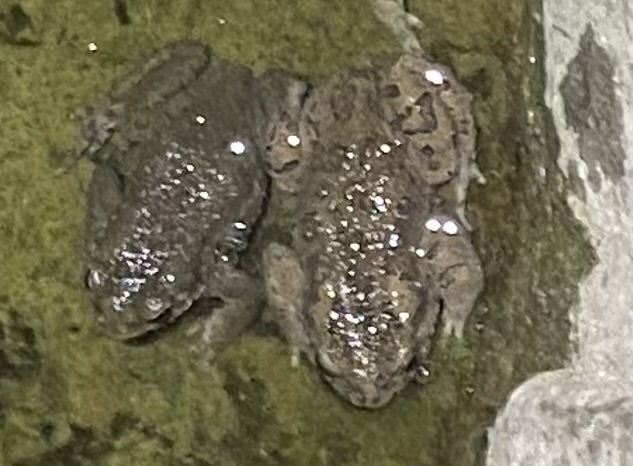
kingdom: Animalia
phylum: Chordata
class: Amphibia
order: Anura
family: Bufonidae
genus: Bufotes
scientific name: Bufotes viridis
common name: European green toad
